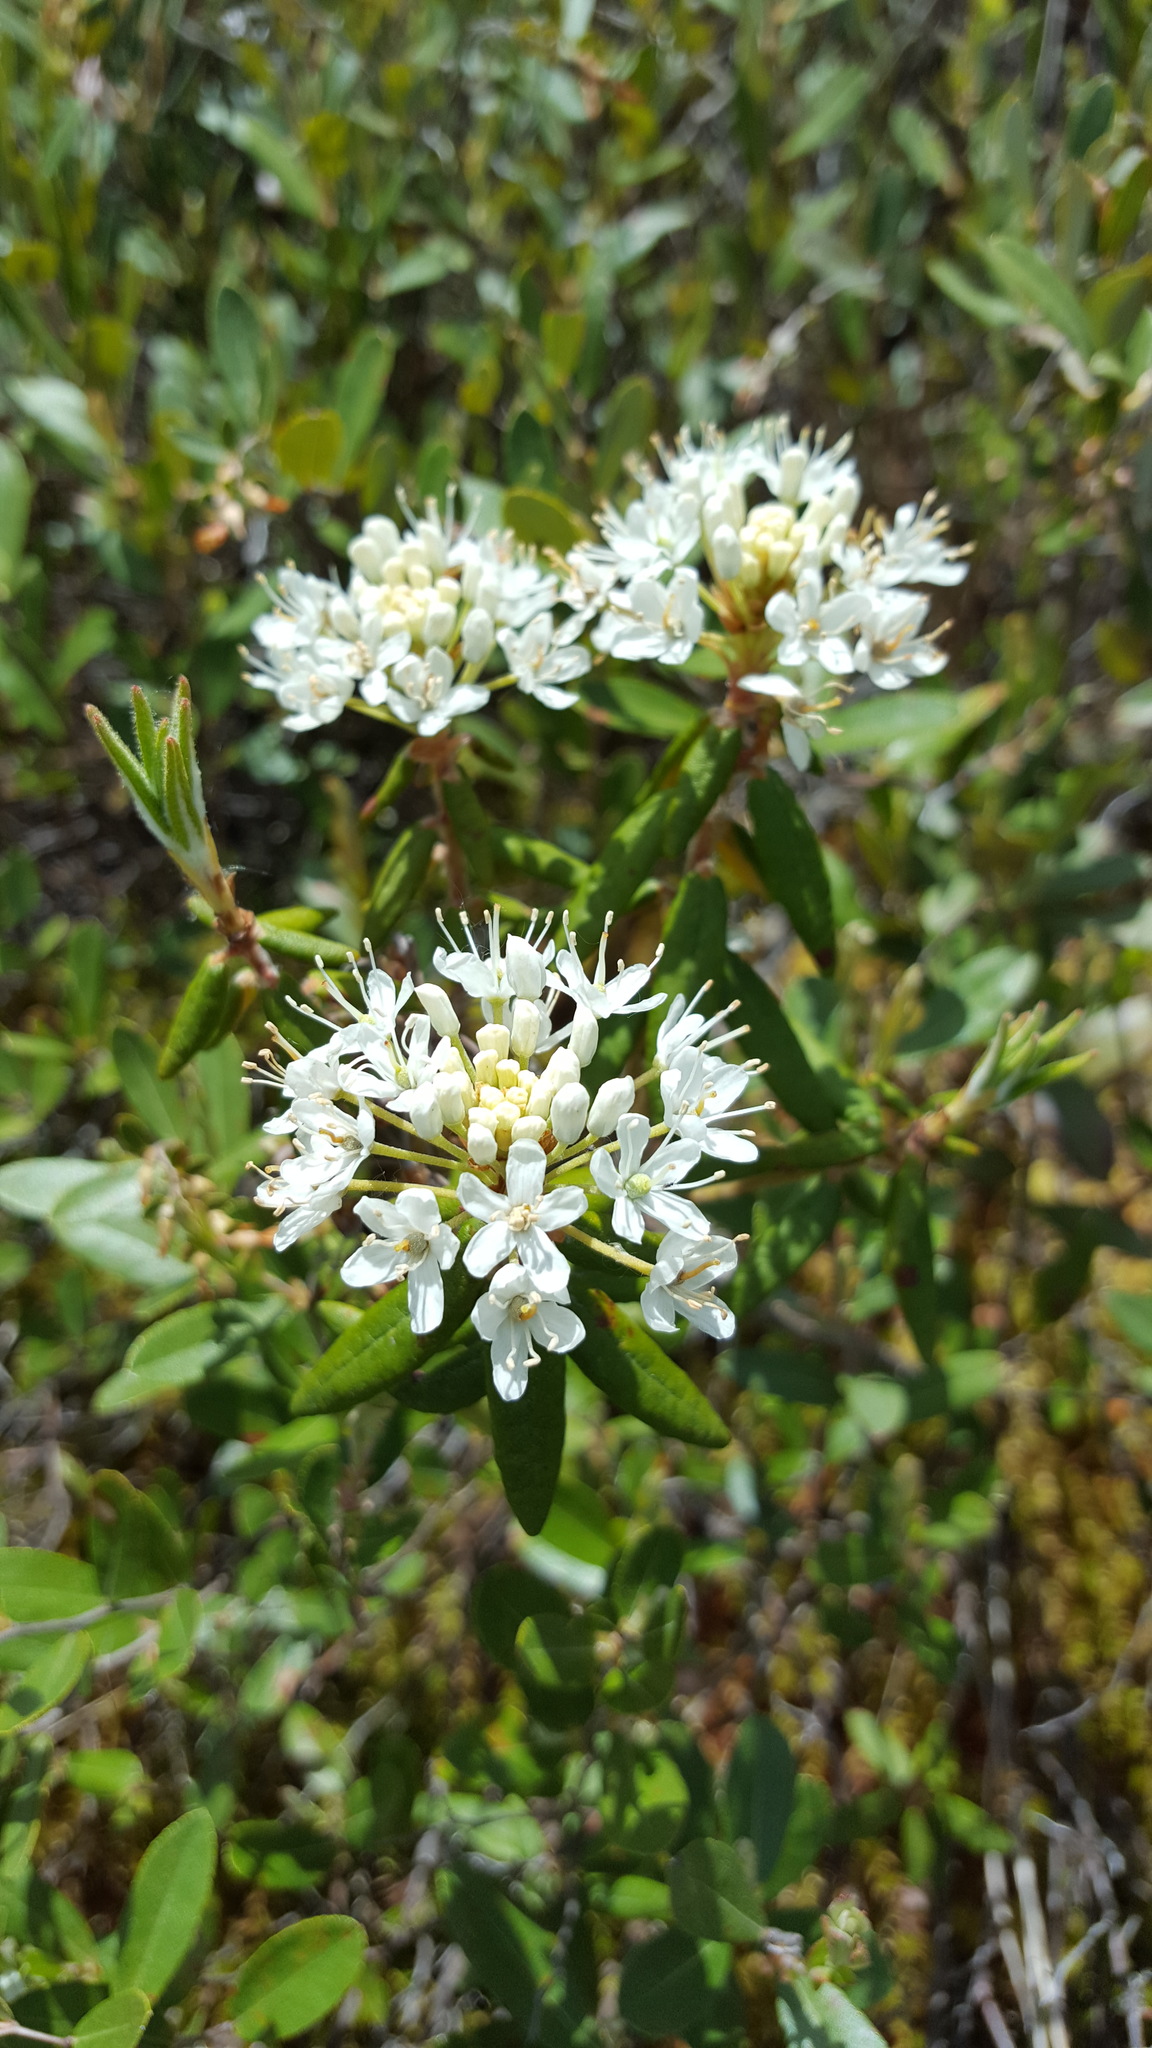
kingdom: Plantae
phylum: Tracheophyta
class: Magnoliopsida
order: Ericales
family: Ericaceae
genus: Rhododendron
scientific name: Rhododendron groenlandicum
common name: Bog labrador tea
